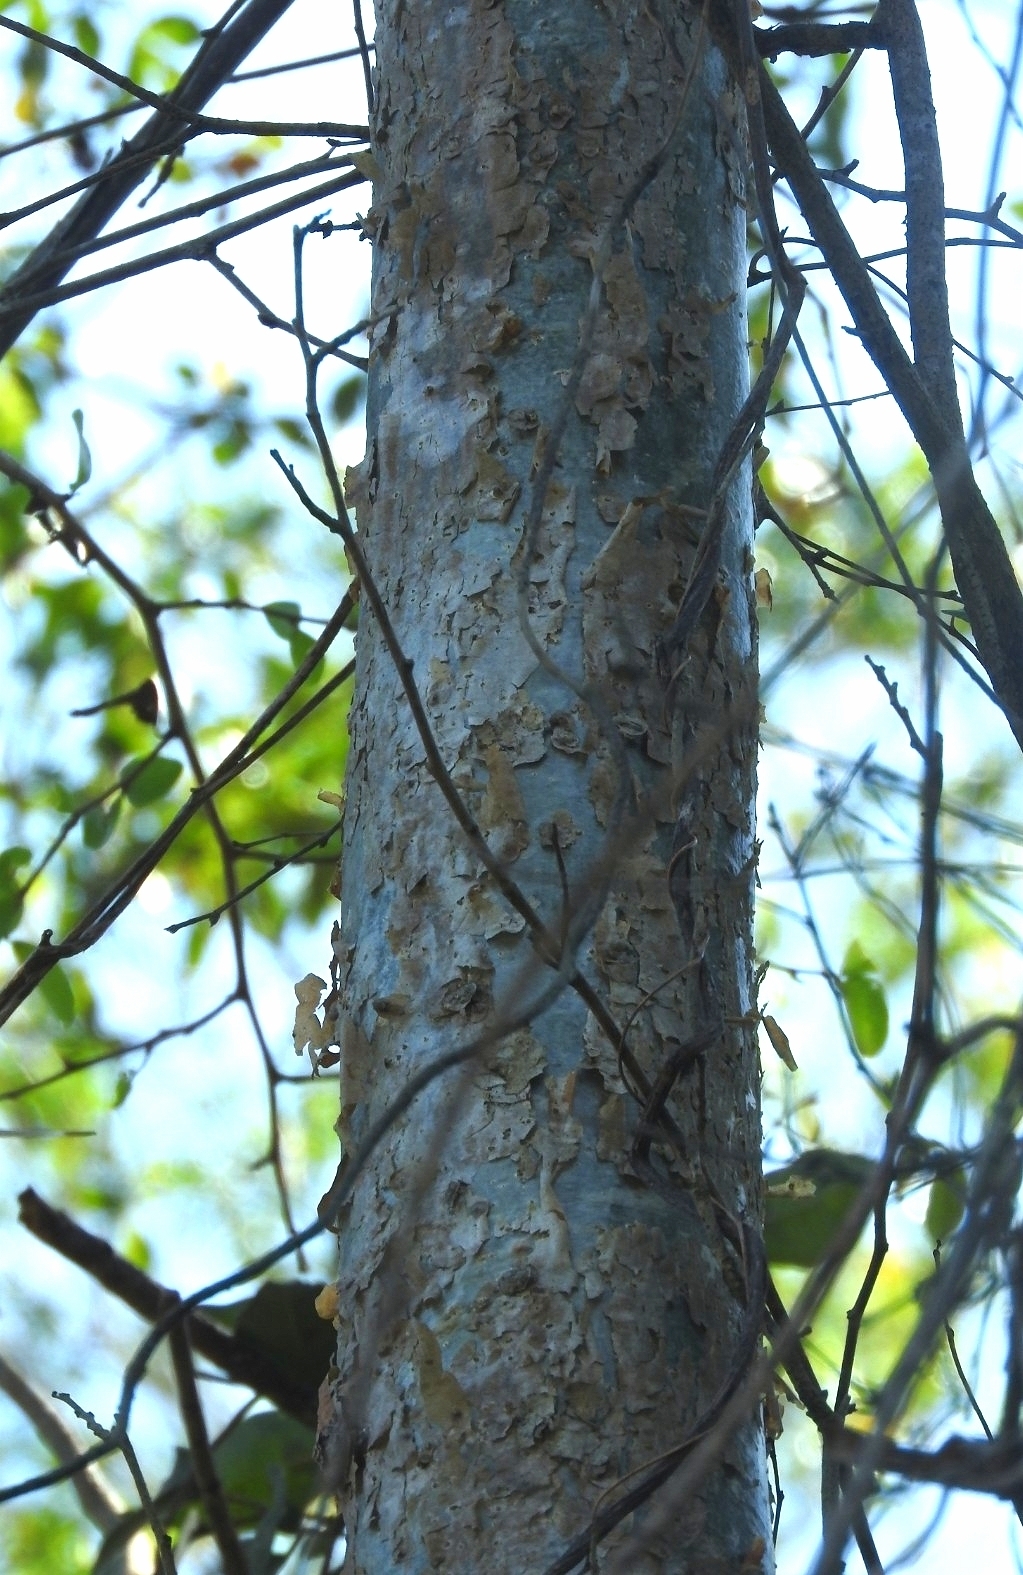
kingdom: Plantae
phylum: Tracheophyta
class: Magnoliopsida
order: Sapindales
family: Burseraceae
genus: Bursera
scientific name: Bursera simaruba
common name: Turpentine tree
